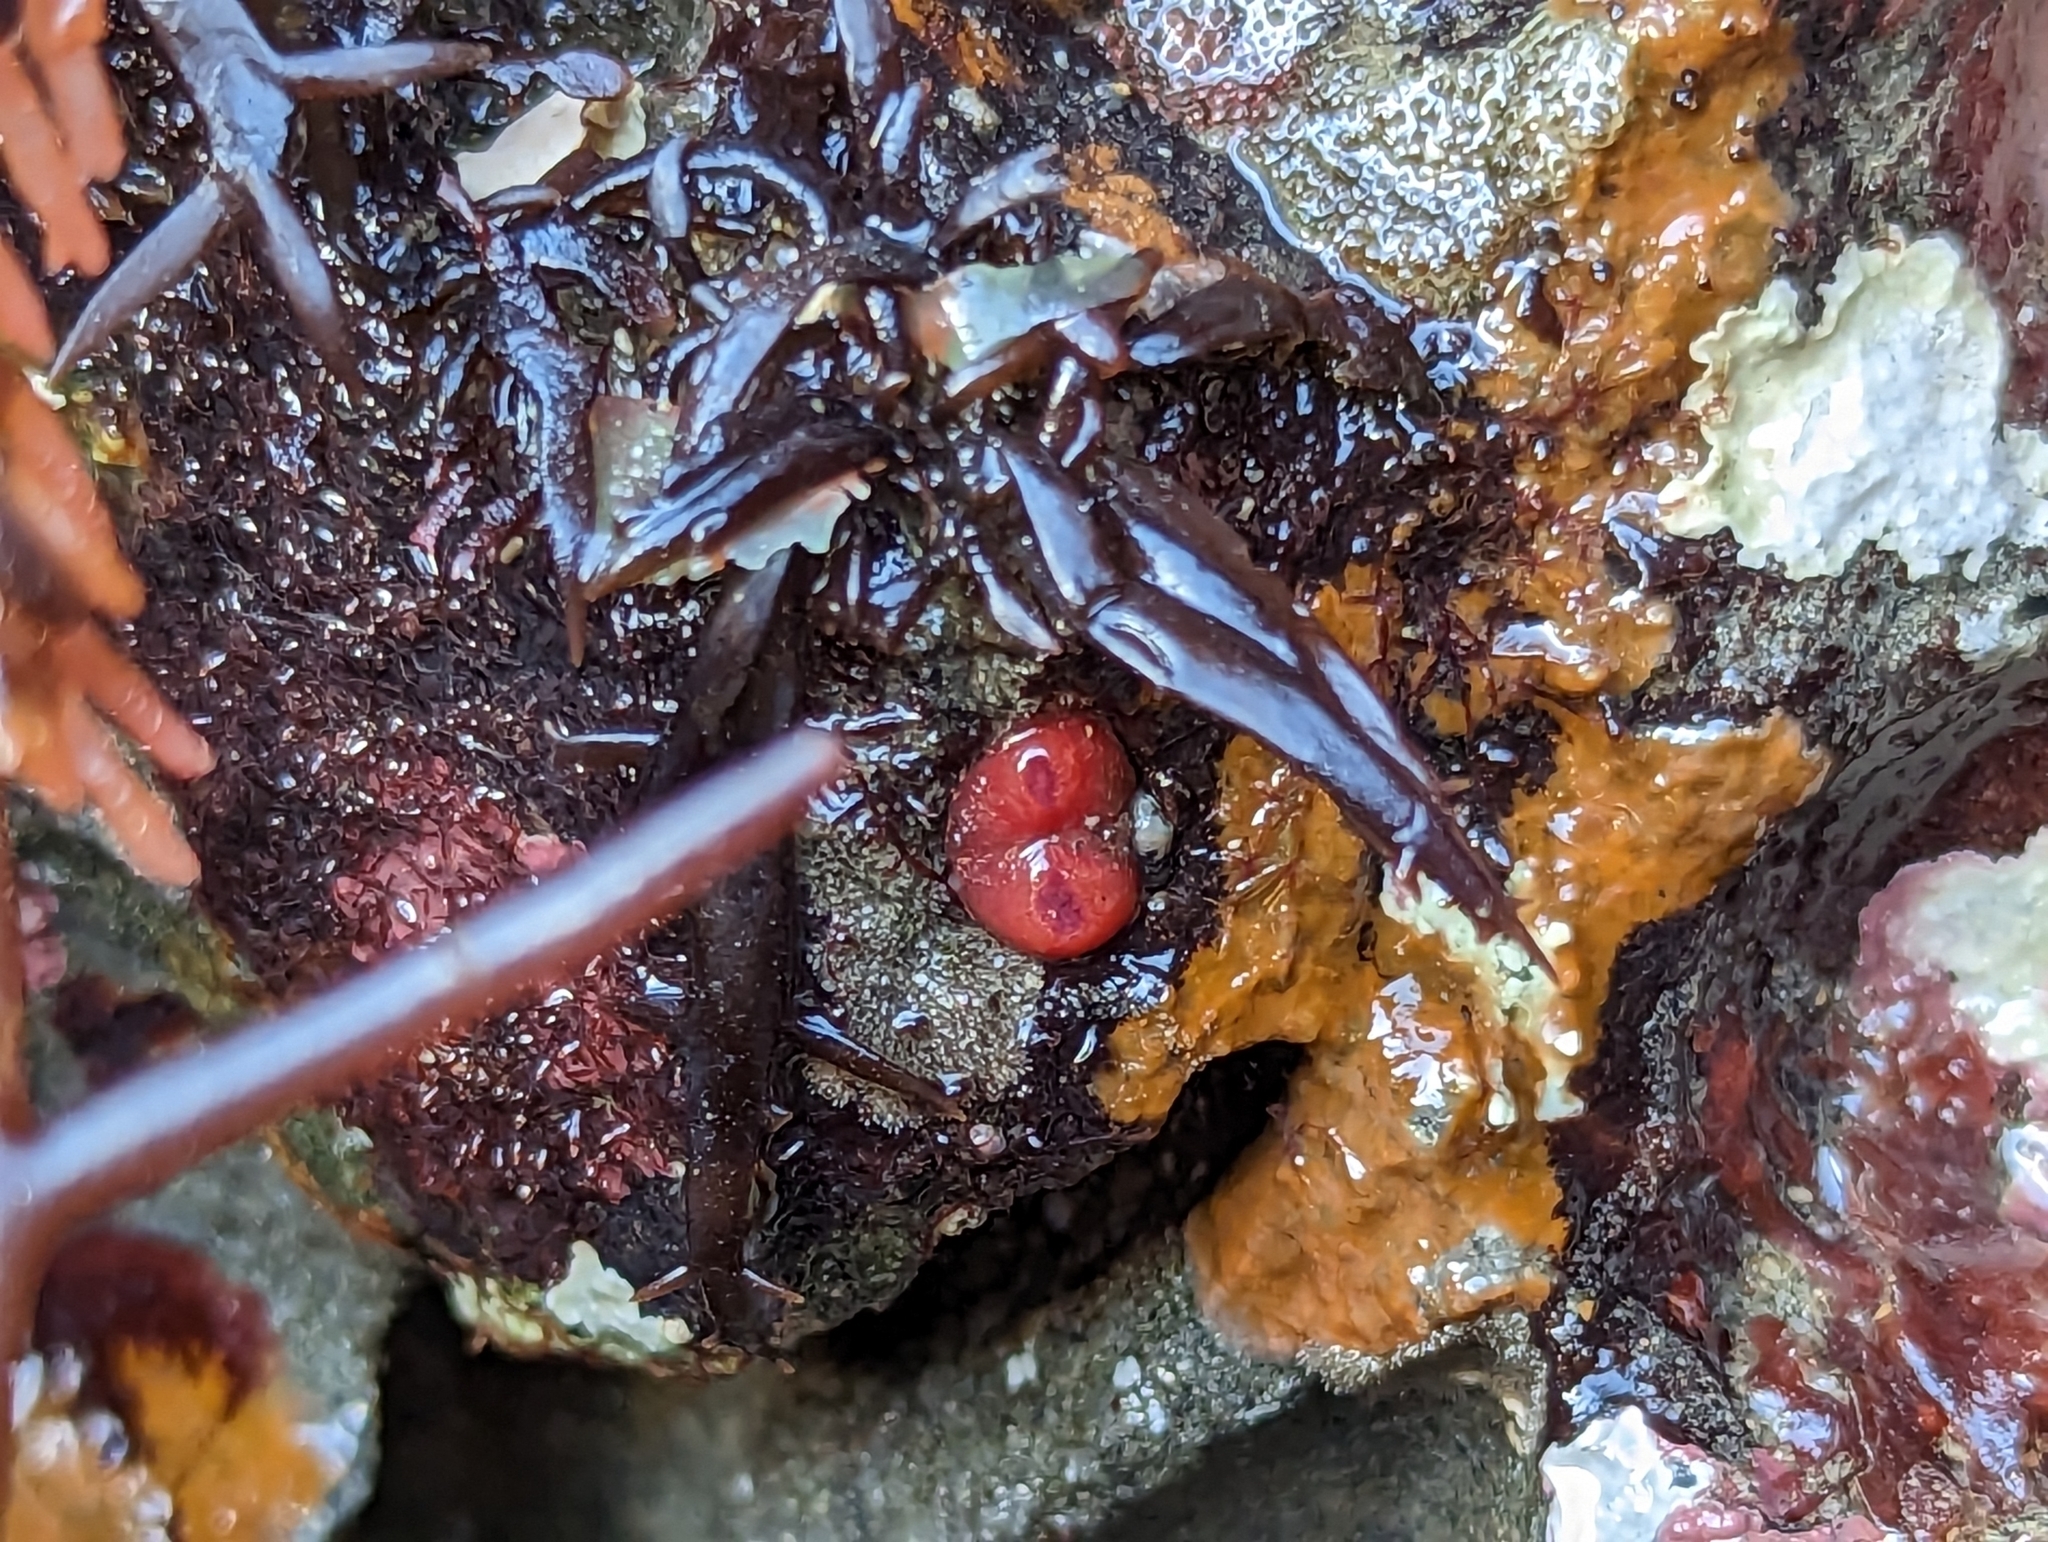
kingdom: Animalia
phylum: Mollusca
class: Bivalvia
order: Adapedonta
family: Hiatellidae
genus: Hiatella
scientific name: Hiatella arctica
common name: Arctic hiatella
